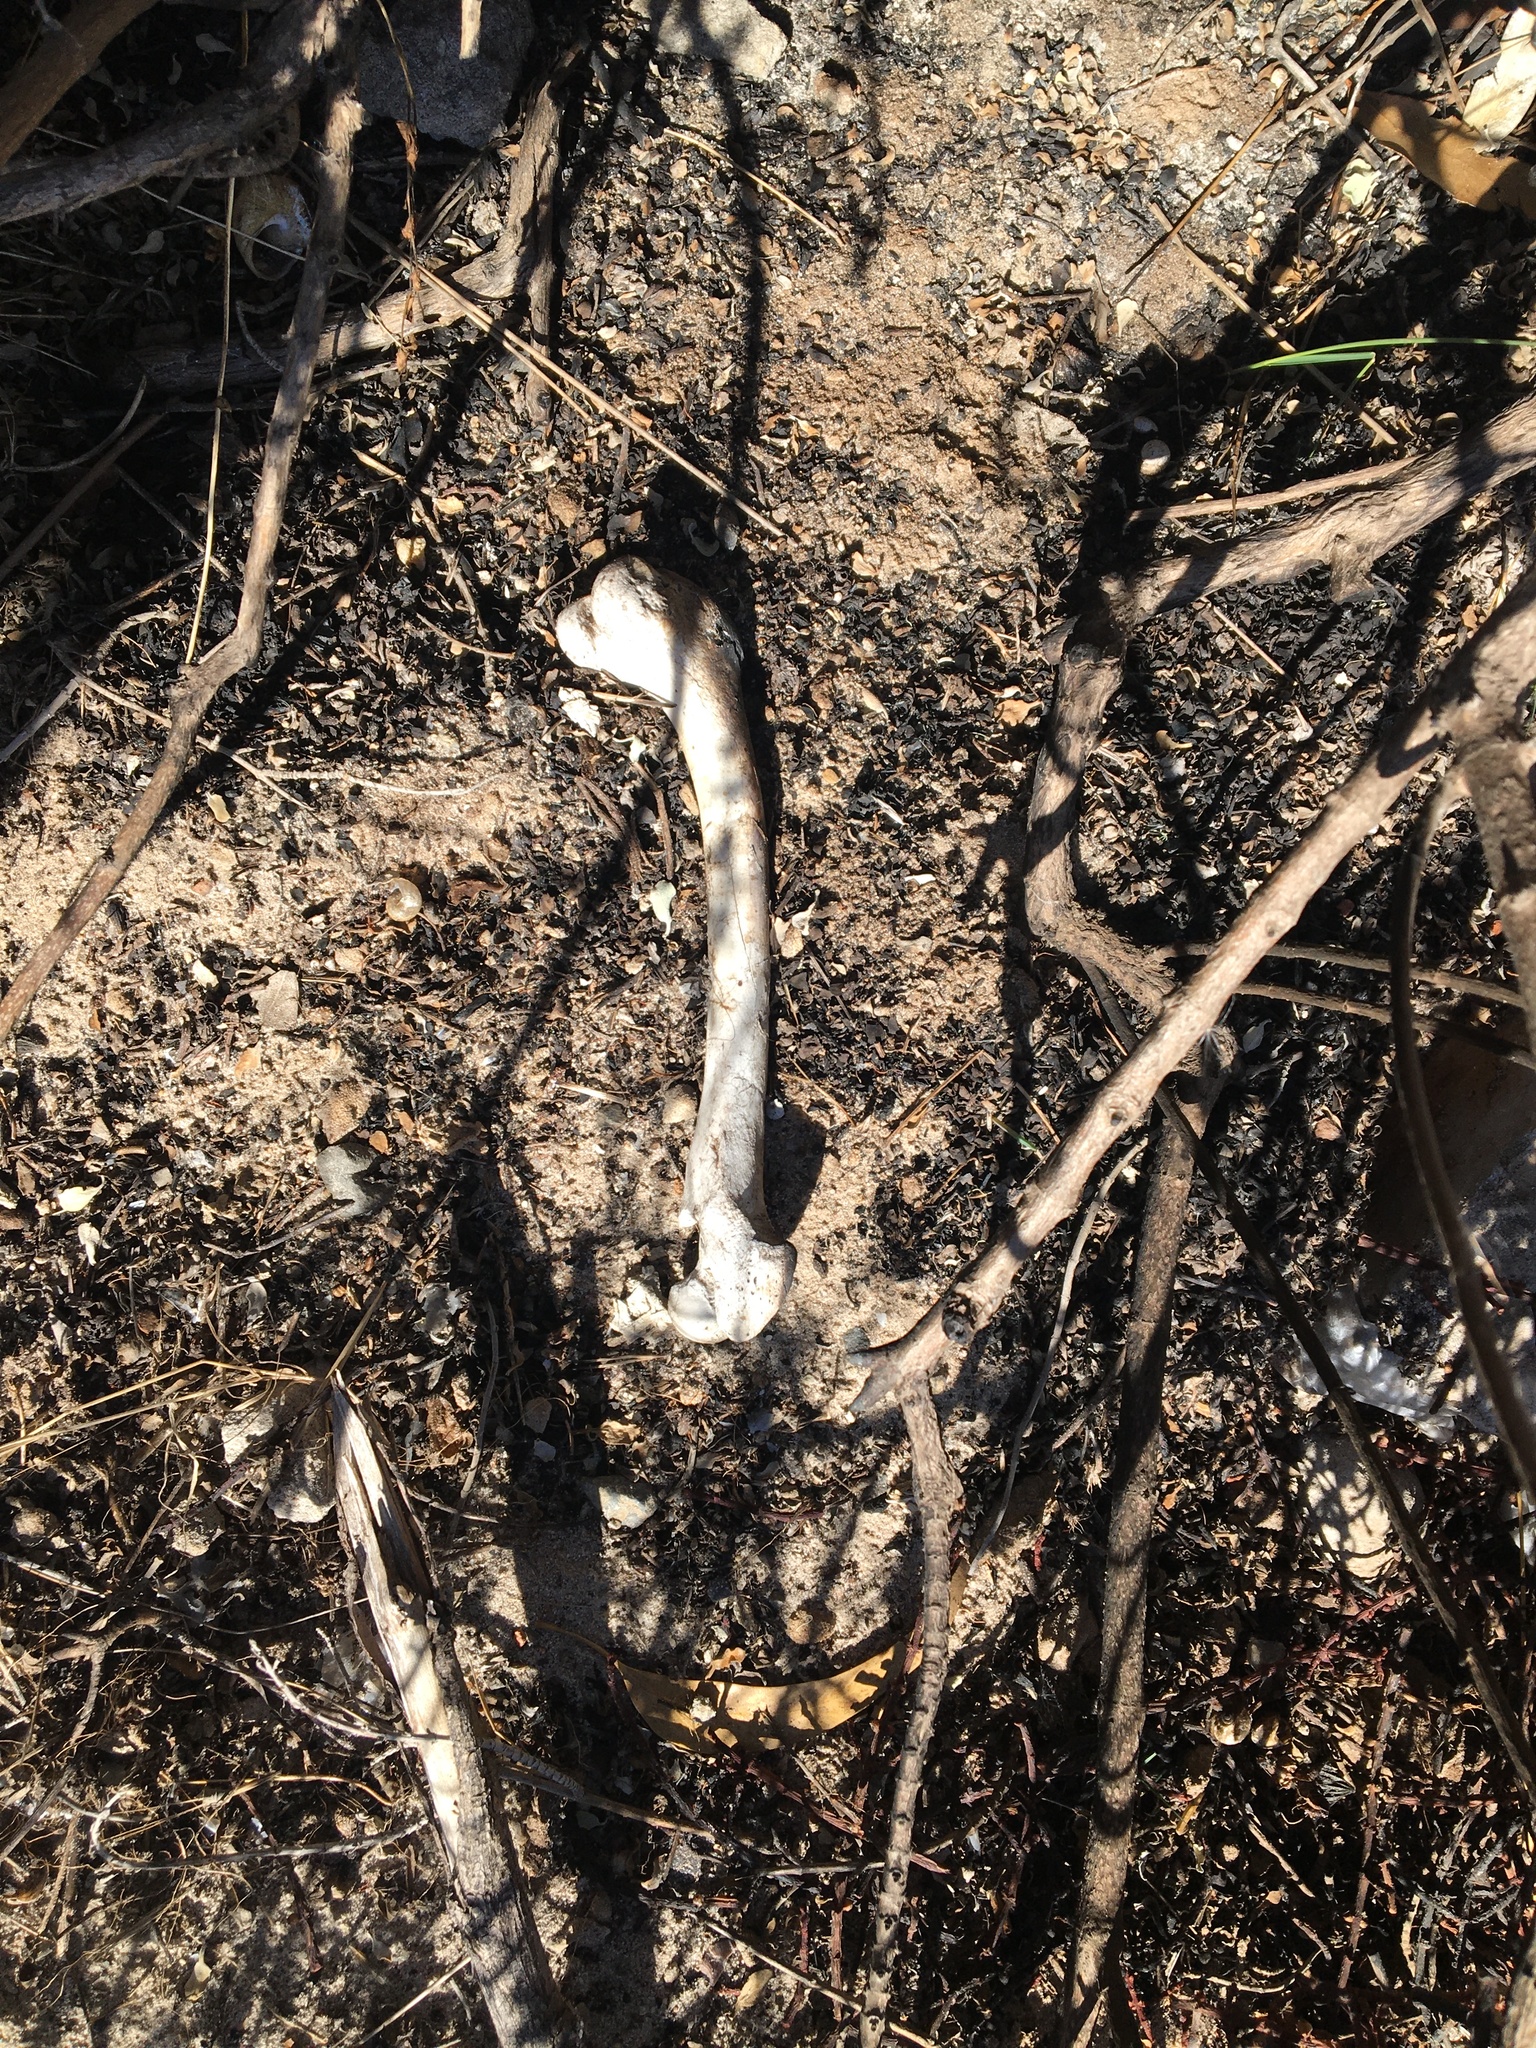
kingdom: Animalia
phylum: Chordata
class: Mammalia
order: Artiodactyla
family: Bovidae
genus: Capra
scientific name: Capra hircus
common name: Domestic goat
